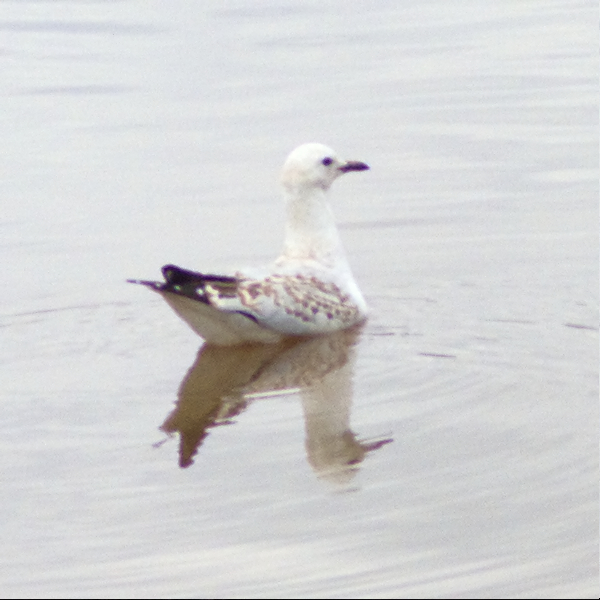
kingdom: Animalia
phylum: Chordata
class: Aves
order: Charadriiformes
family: Laridae
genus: Chroicocephalus
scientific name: Chroicocephalus novaehollandiae
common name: Silver gull
